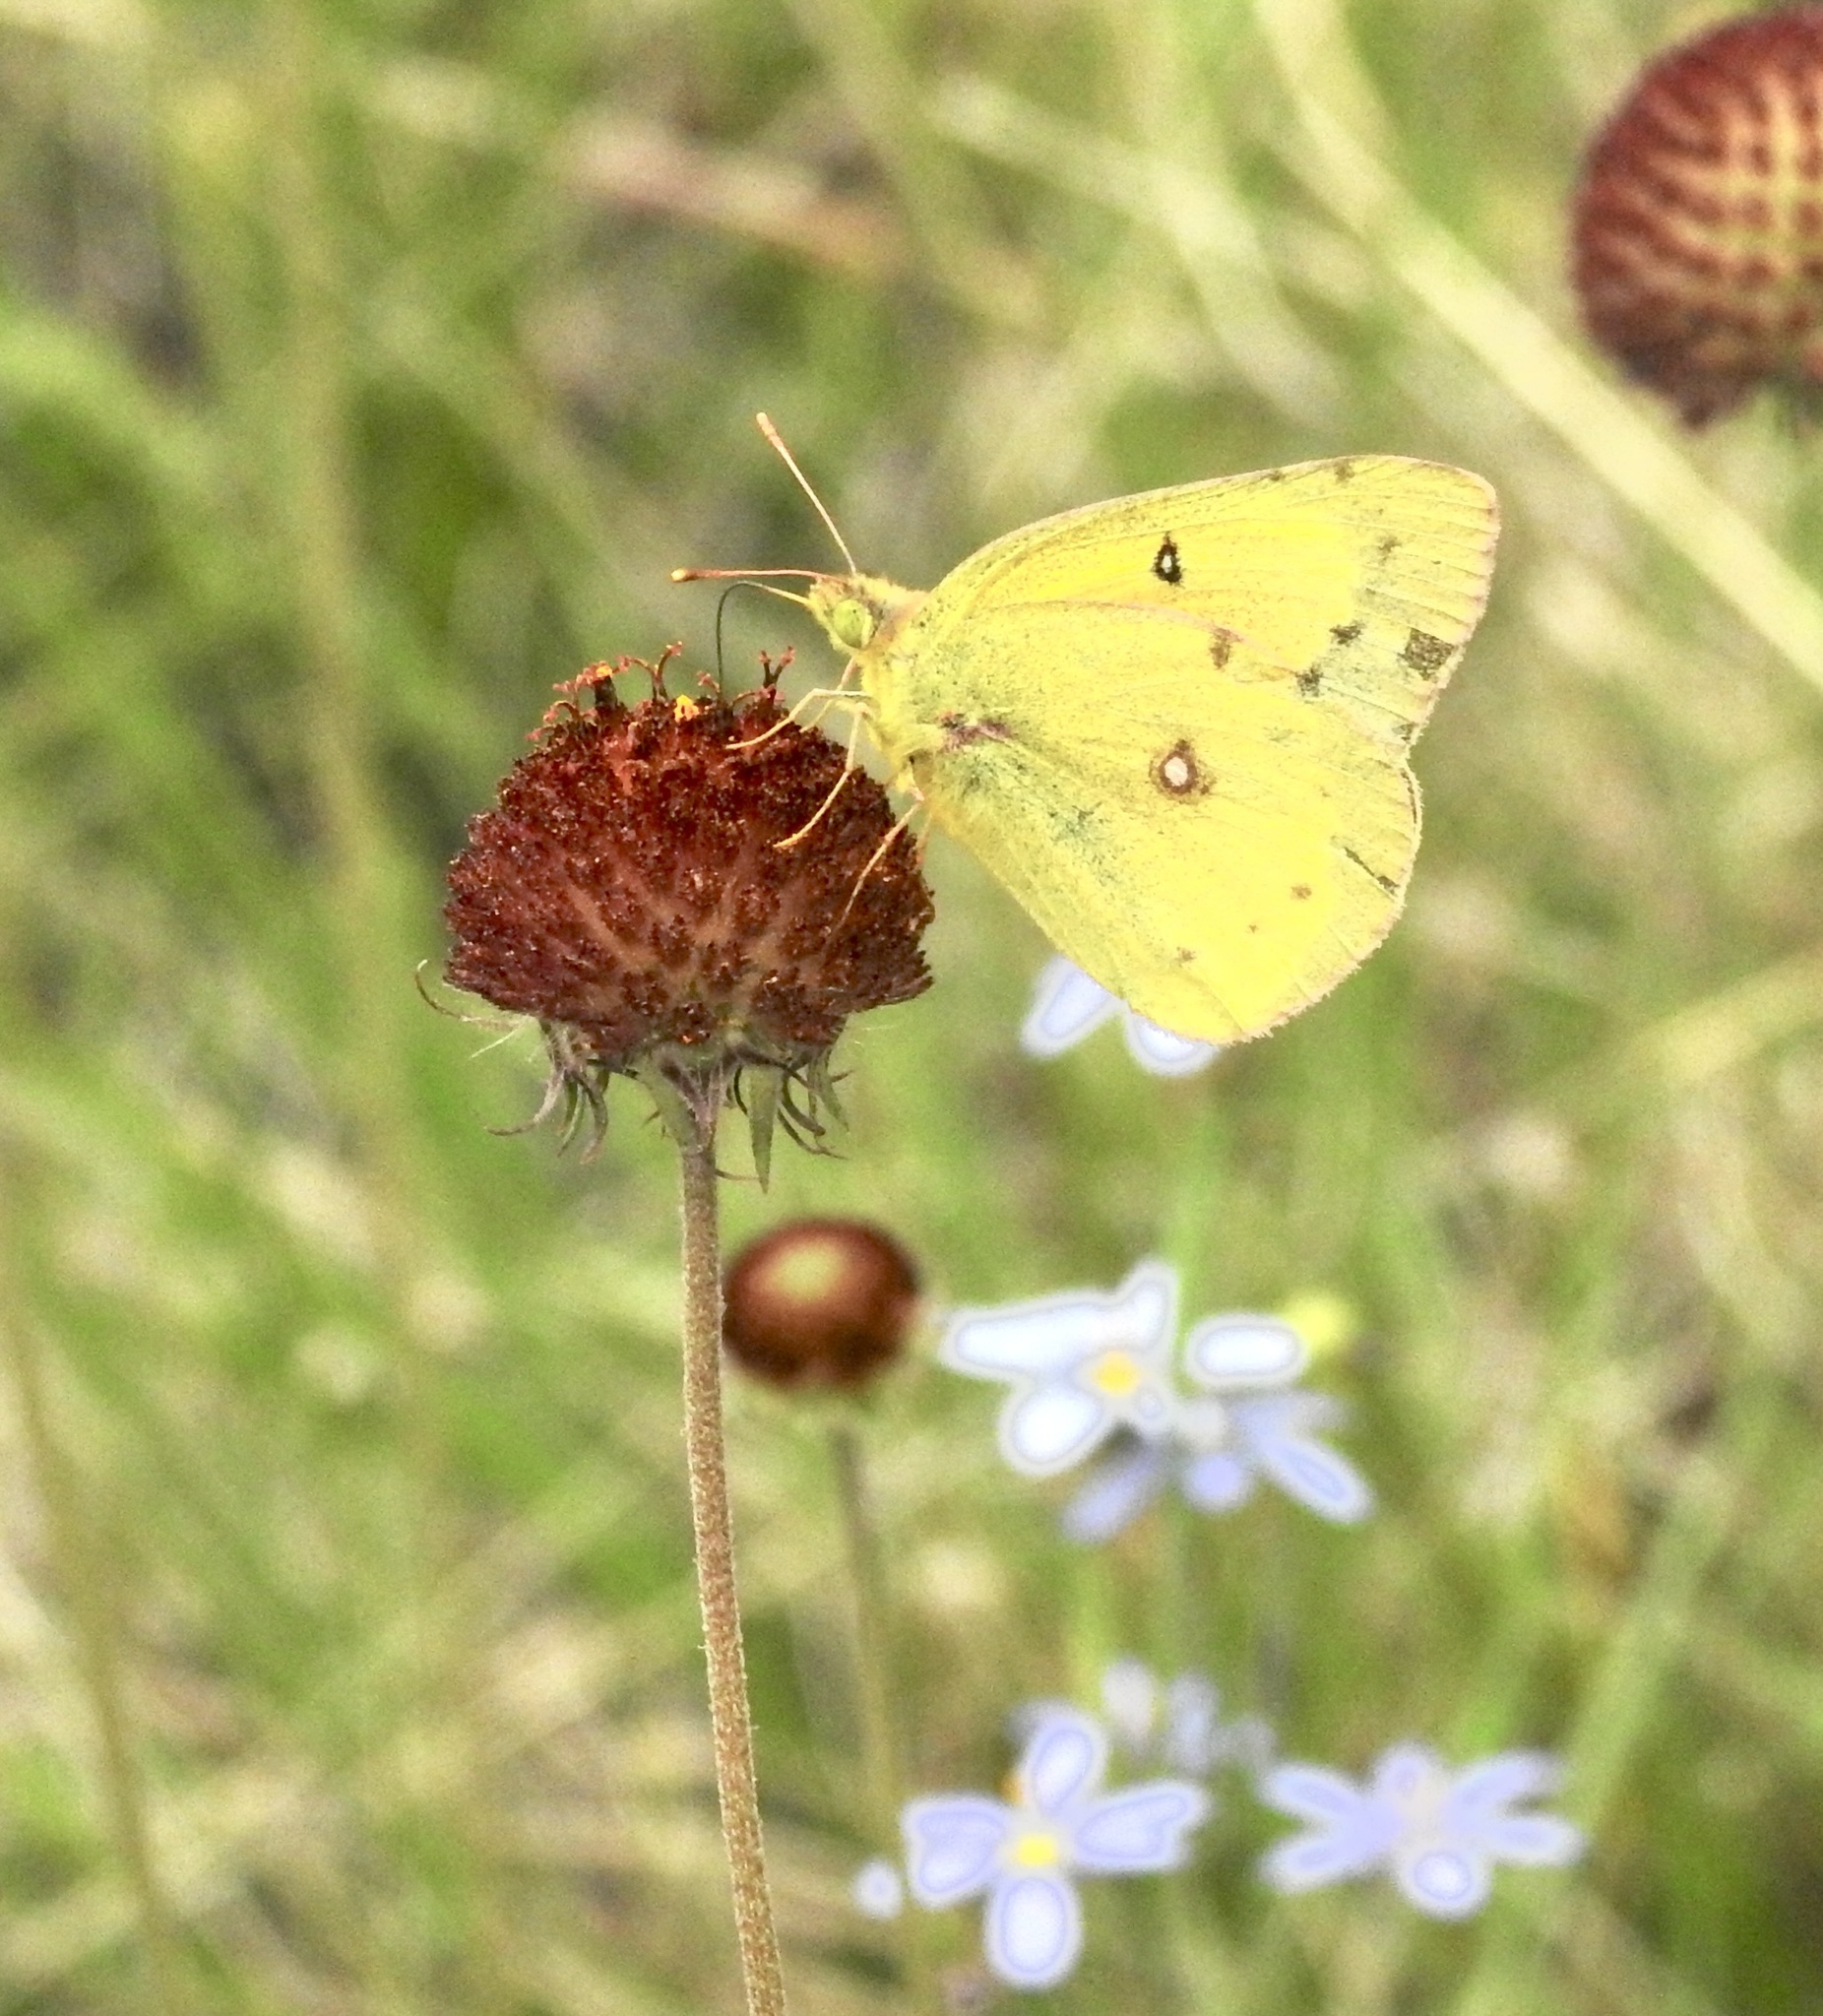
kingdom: Animalia
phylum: Arthropoda
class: Insecta
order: Lepidoptera
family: Pieridae
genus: Colias
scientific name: Colias eurytheme
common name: Alfalfa butterfly
